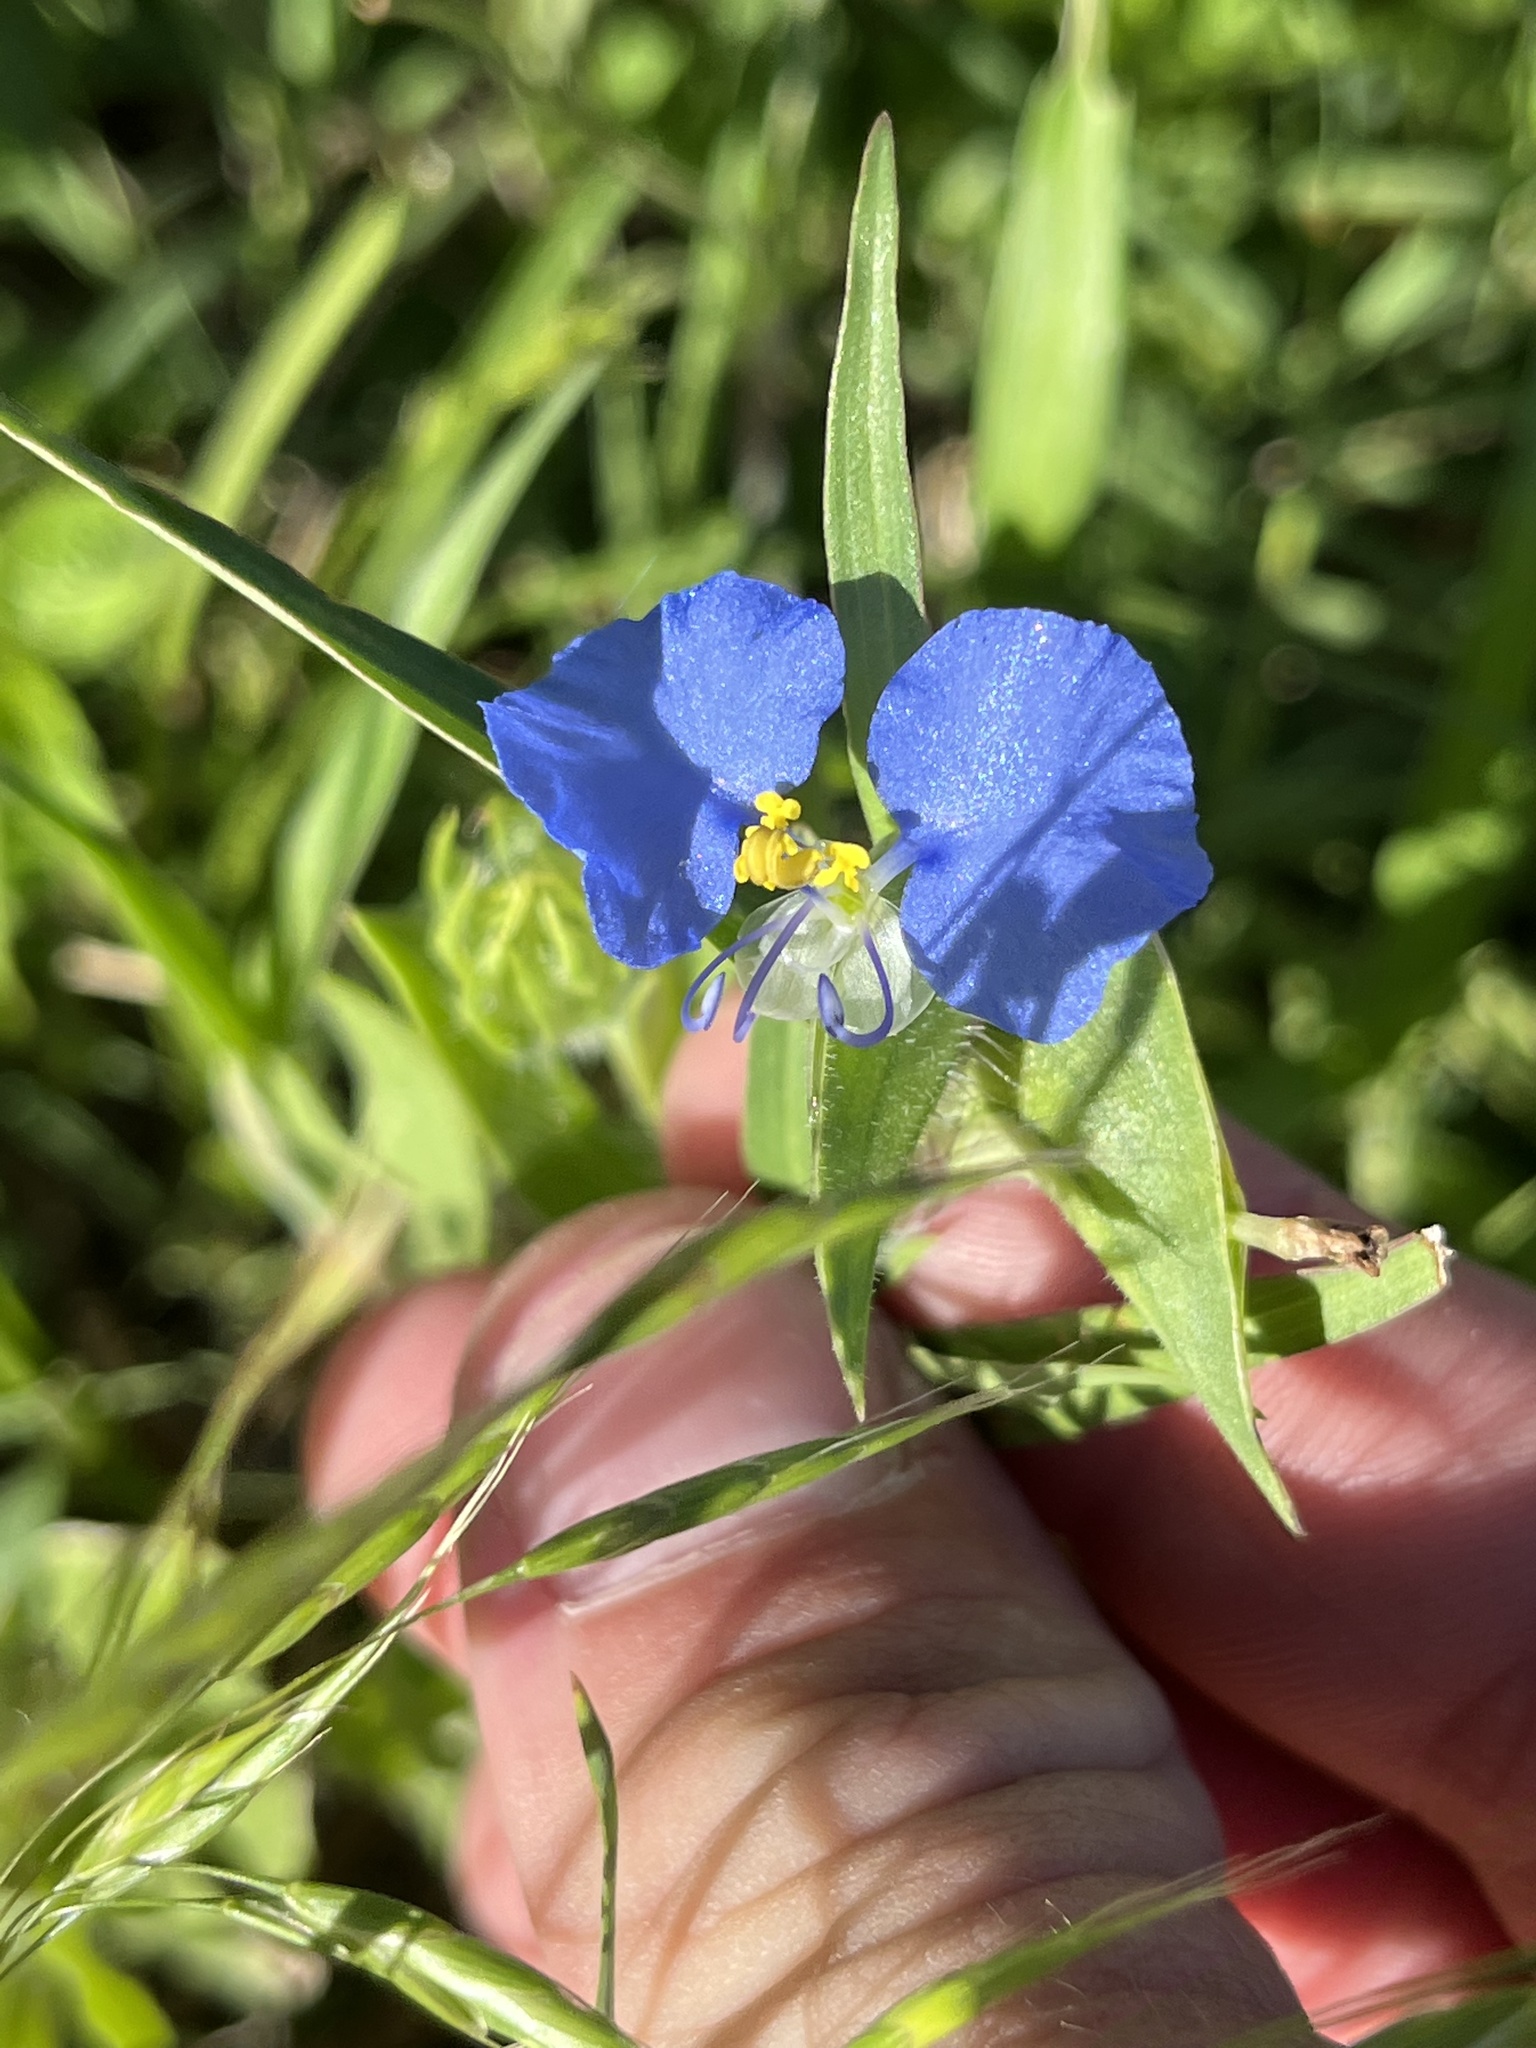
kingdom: Plantae
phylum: Tracheophyta
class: Liliopsida
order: Commelinales
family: Commelinaceae
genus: Commelina
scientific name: Commelina erecta
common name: Blousel blommetjie
